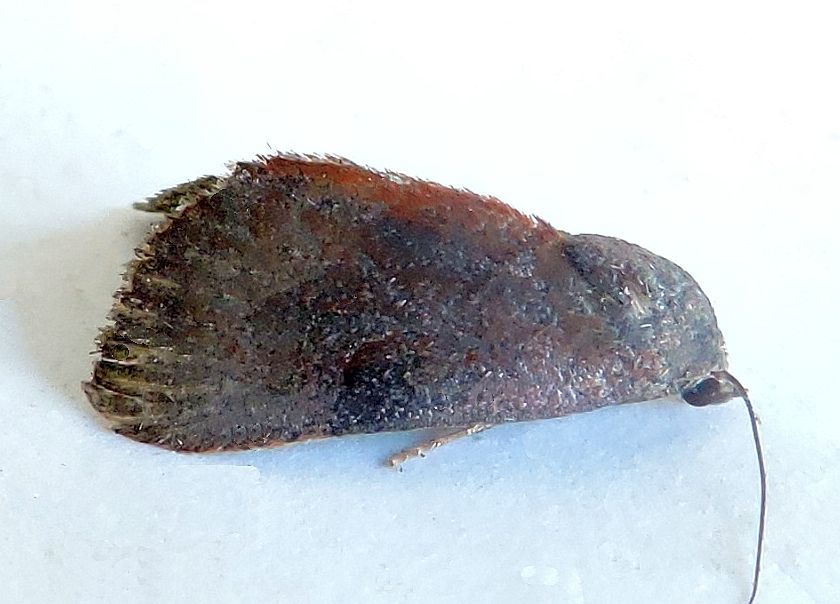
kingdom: Animalia
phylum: Arthropoda
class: Insecta
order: Lepidoptera
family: Noctuidae
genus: Galgula
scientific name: Galgula partita
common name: Wedgeling
